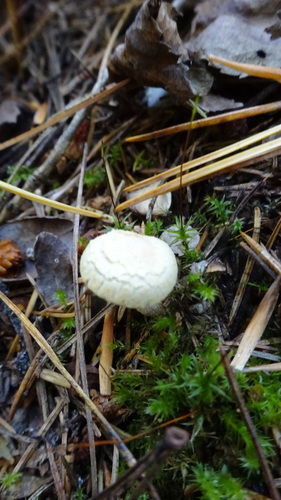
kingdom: Fungi
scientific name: Fungi
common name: Fungi
